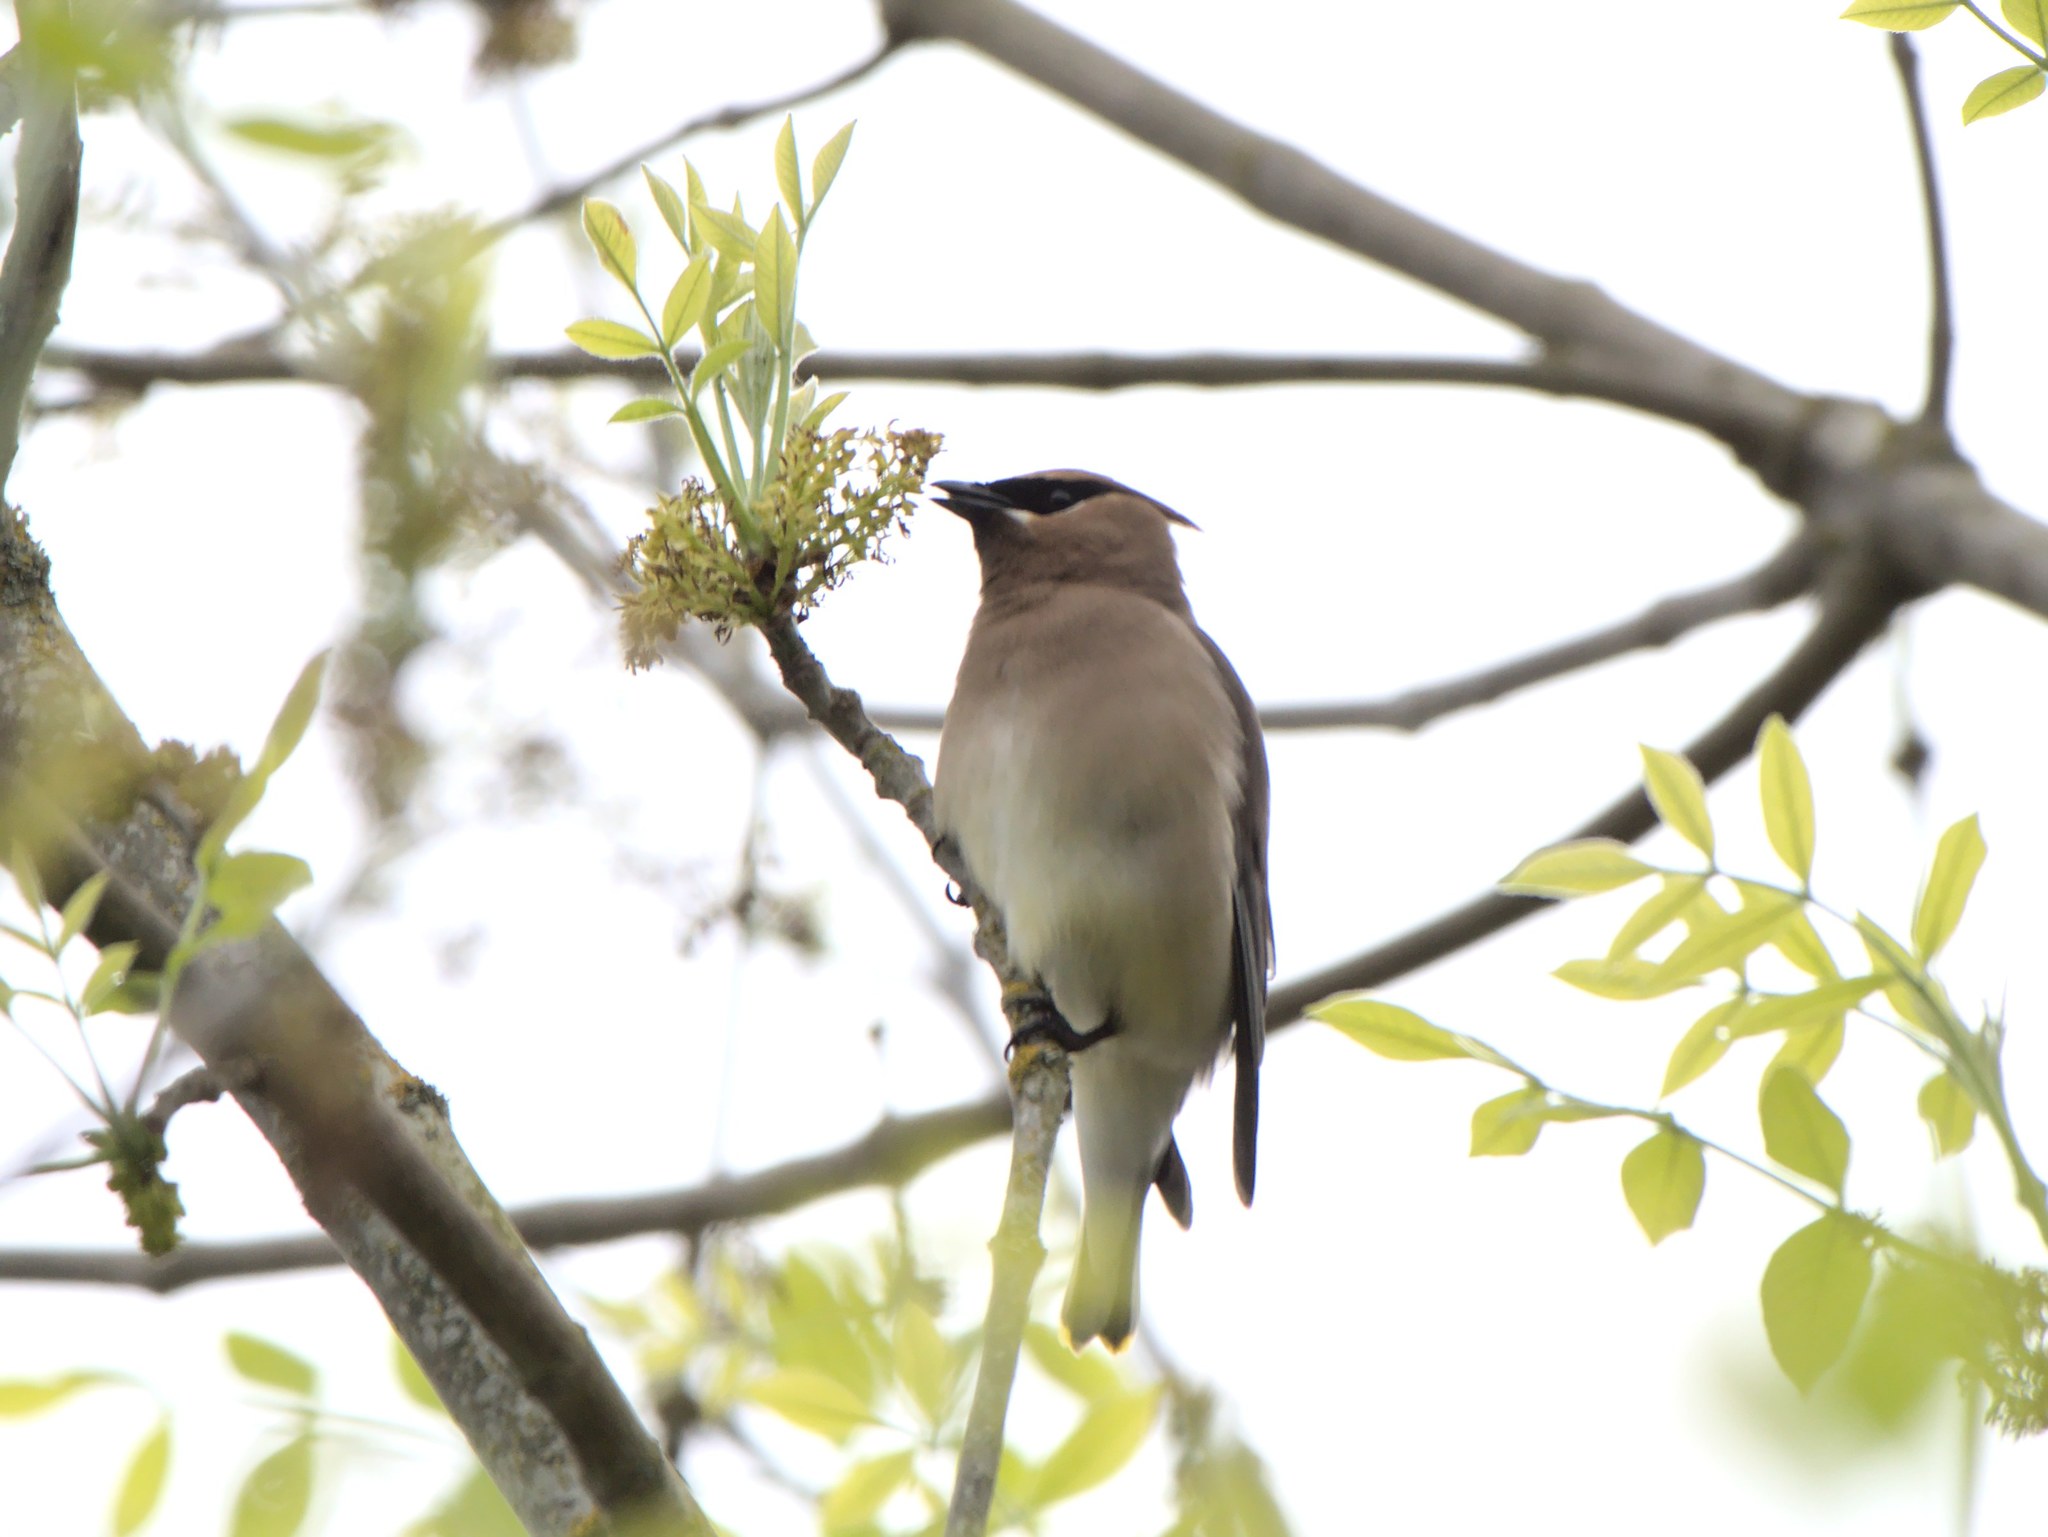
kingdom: Animalia
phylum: Chordata
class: Aves
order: Passeriformes
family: Bombycillidae
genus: Bombycilla
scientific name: Bombycilla cedrorum
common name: Cedar waxwing
